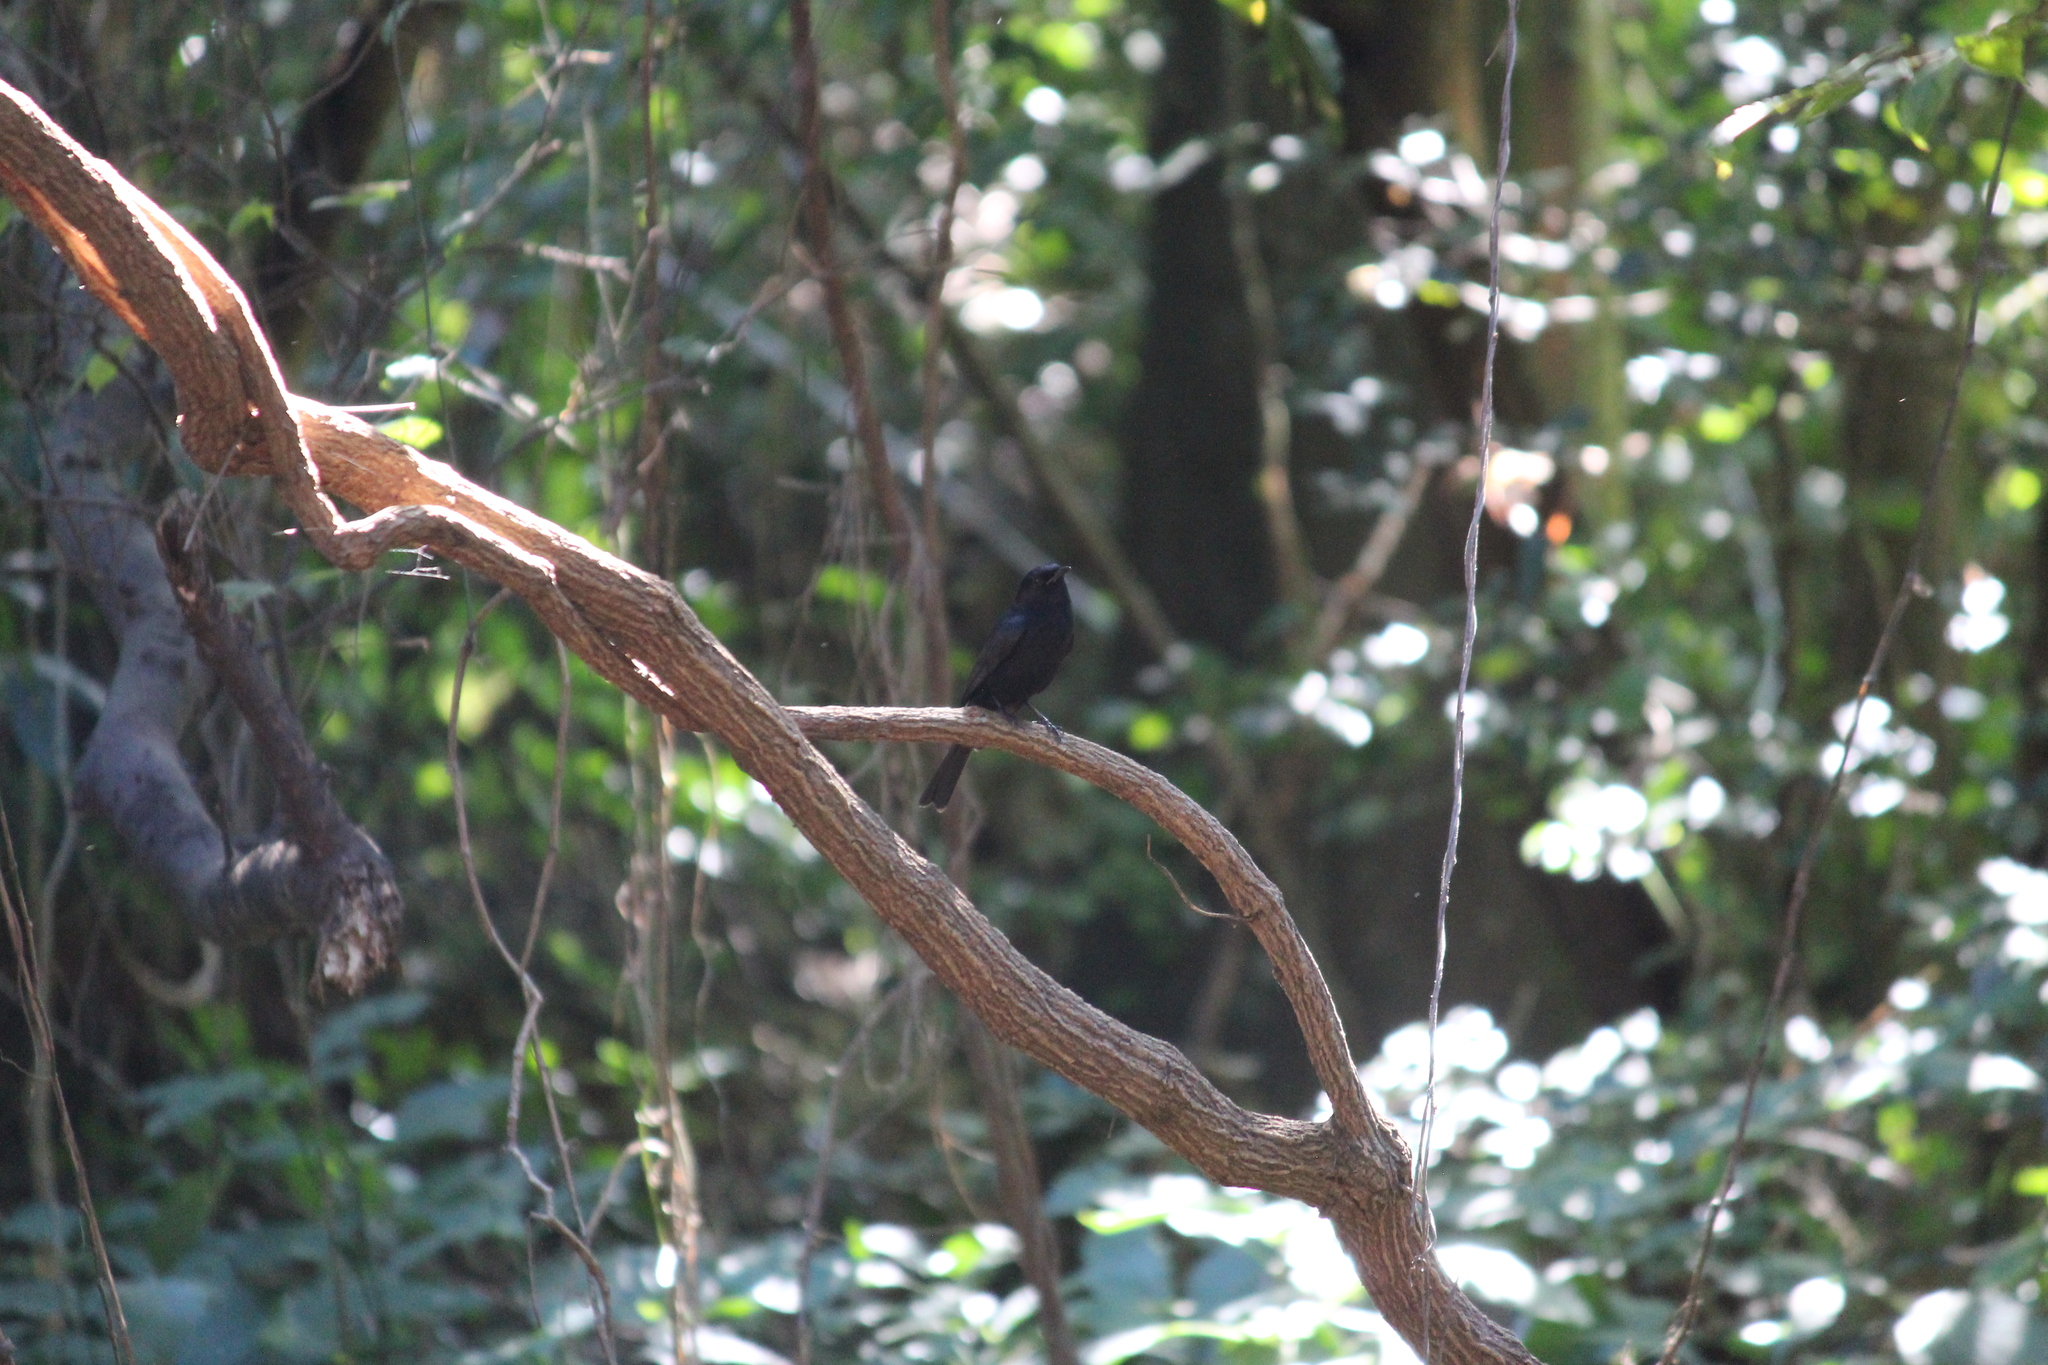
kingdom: Animalia
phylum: Chordata
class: Aves
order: Passeriformes
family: Muscicapidae
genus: Melaenornis
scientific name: Melaenornis pammelaina
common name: Southern black flycatcher
